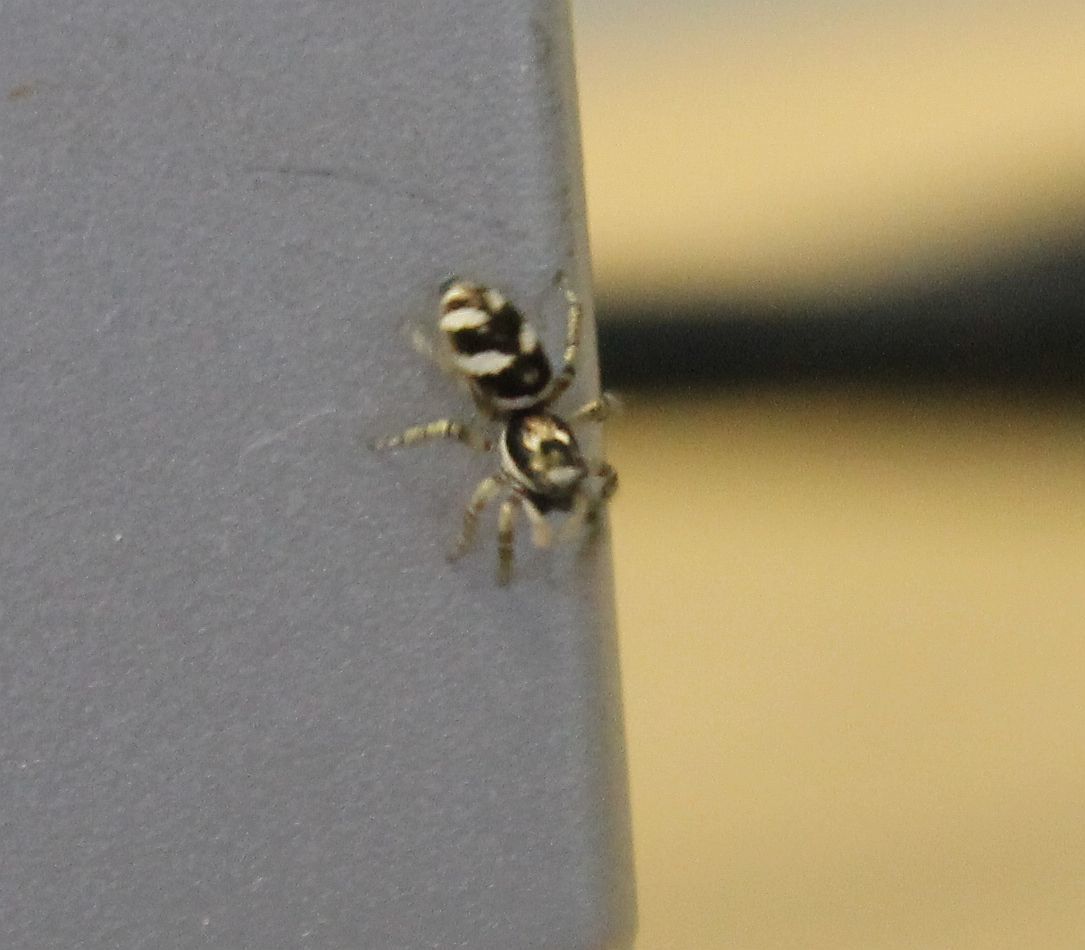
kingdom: Animalia
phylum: Arthropoda
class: Arachnida
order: Araneae
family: Salticidae
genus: Salticus
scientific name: Salticus scenicus
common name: Zebra jumper
